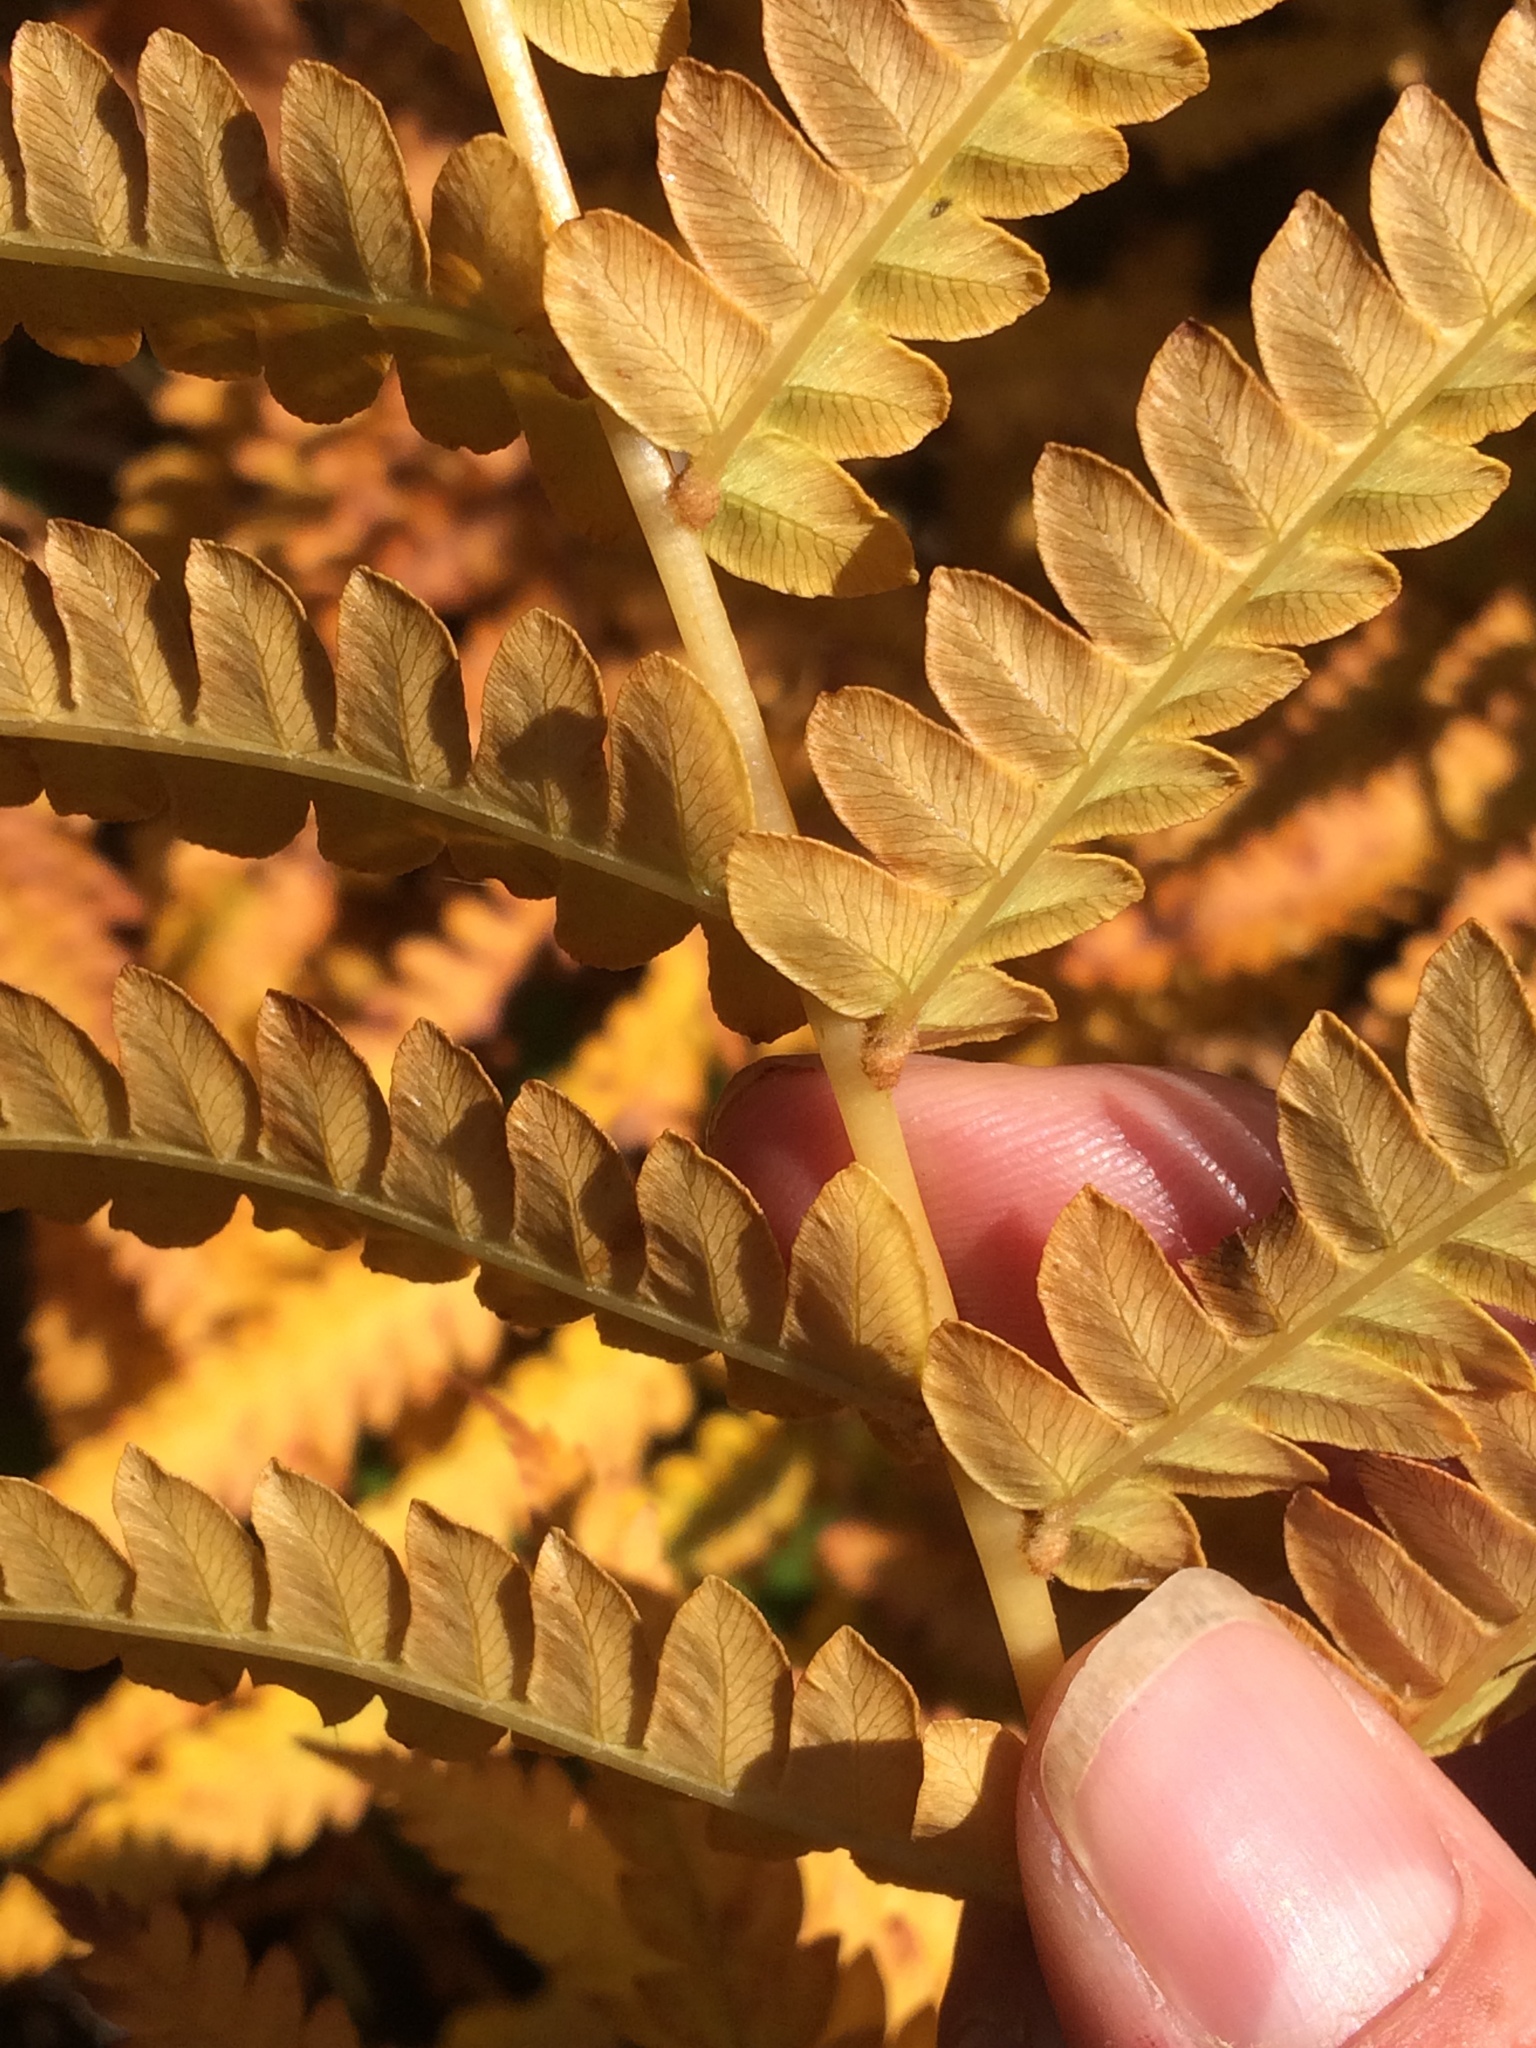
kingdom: Plantae
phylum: Tracheophyta
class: Polypodiopsida
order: Osmundales
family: Osmundaceae
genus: Osmundastrum
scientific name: Osmundastrum cinnamomeum
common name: Cinnamon fern
